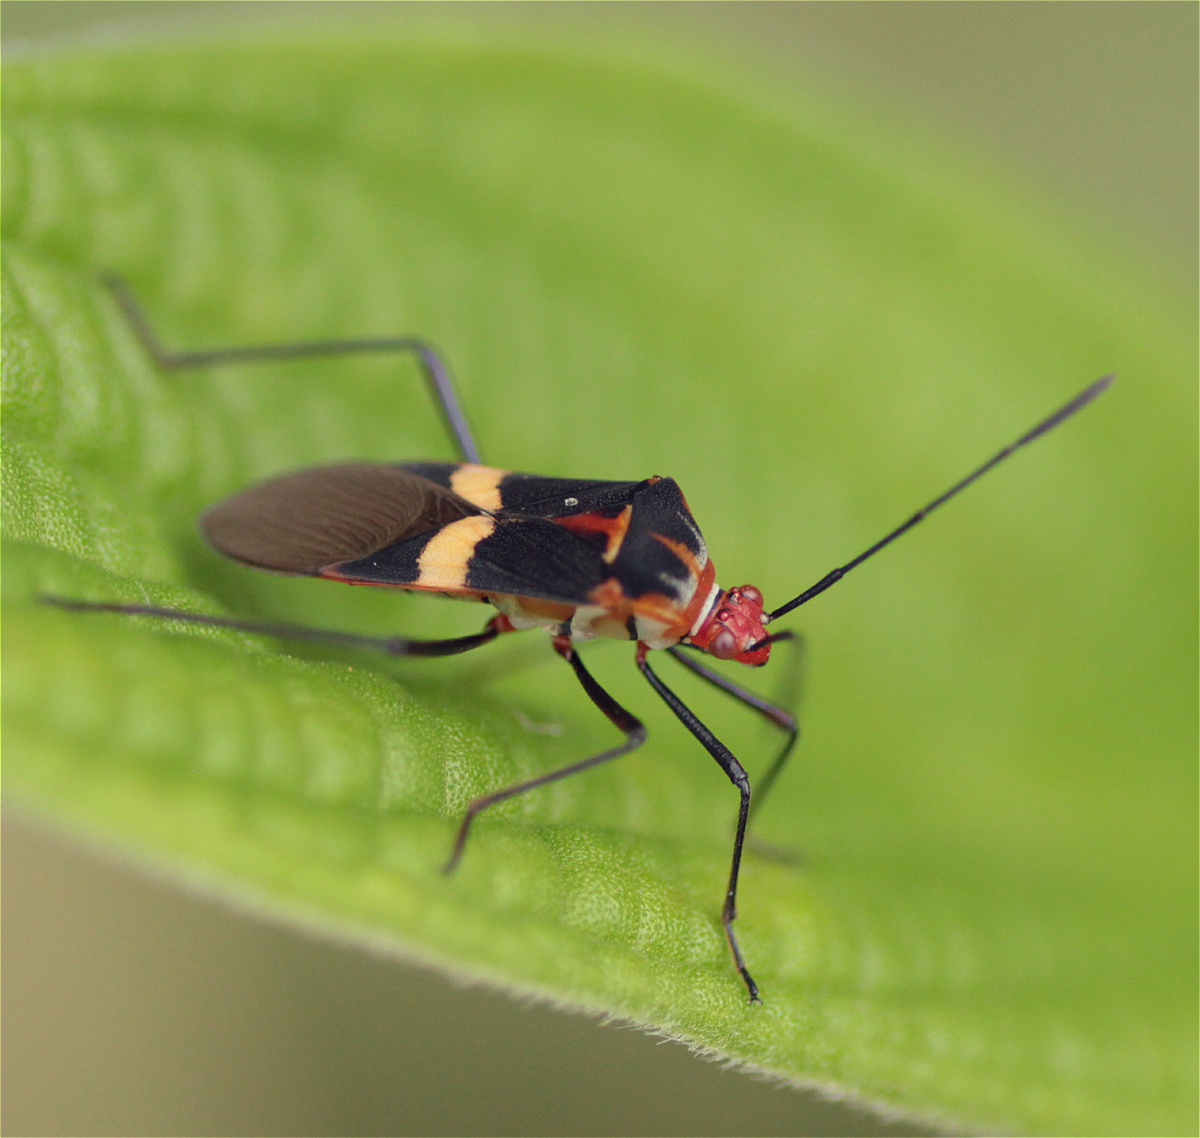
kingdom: Animalia
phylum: Arthropoda
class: Insecta
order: Hemiptera
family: Coreidae
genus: Hypselonotus
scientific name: Hypselonotus interruptus
